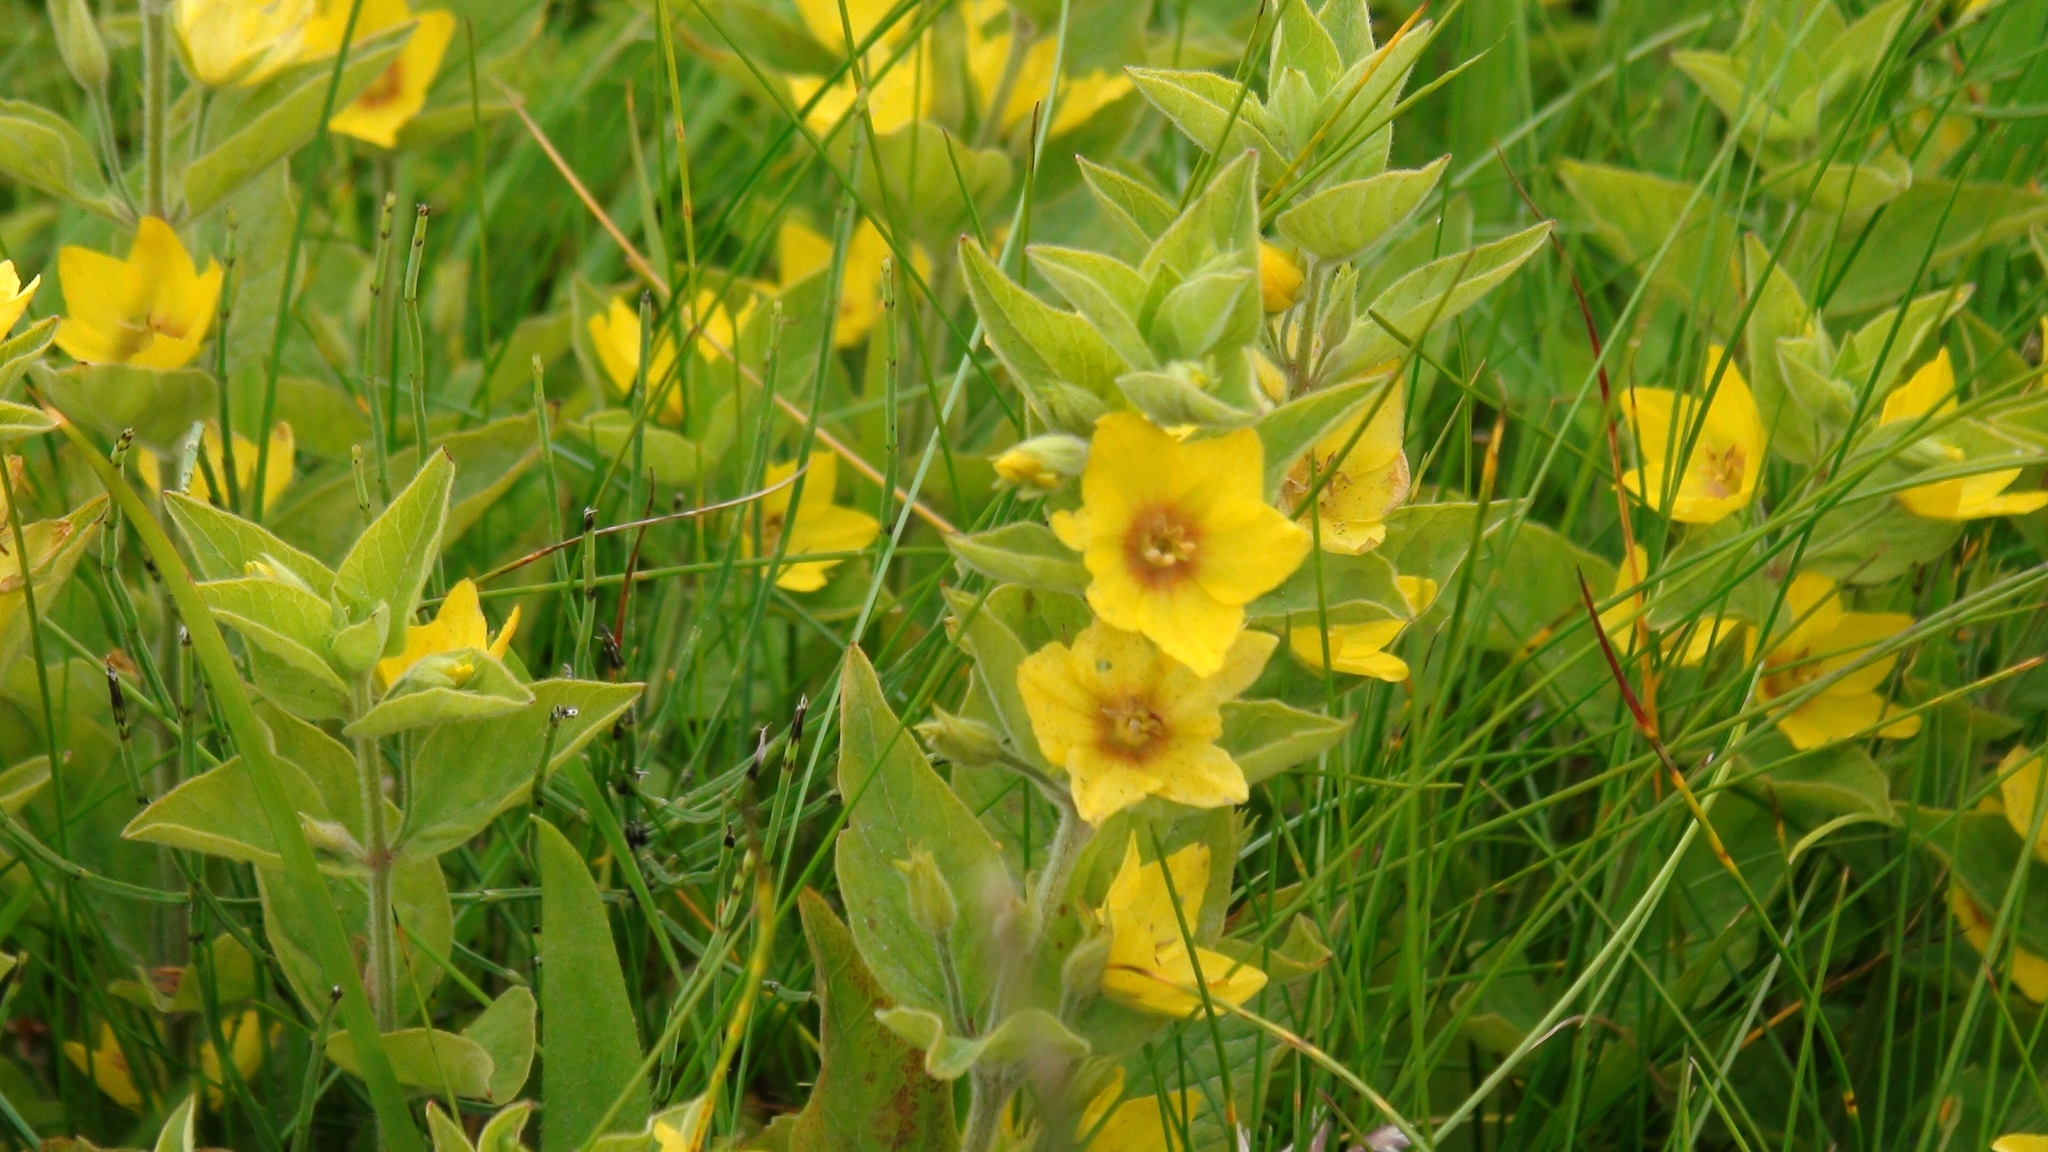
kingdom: Plantae
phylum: Tracheophyta
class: Magnoliopsida
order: Ericales
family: Primulaceae
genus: Lysimachia
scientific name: Lysimachia punctata
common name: Dotted loosestrife
